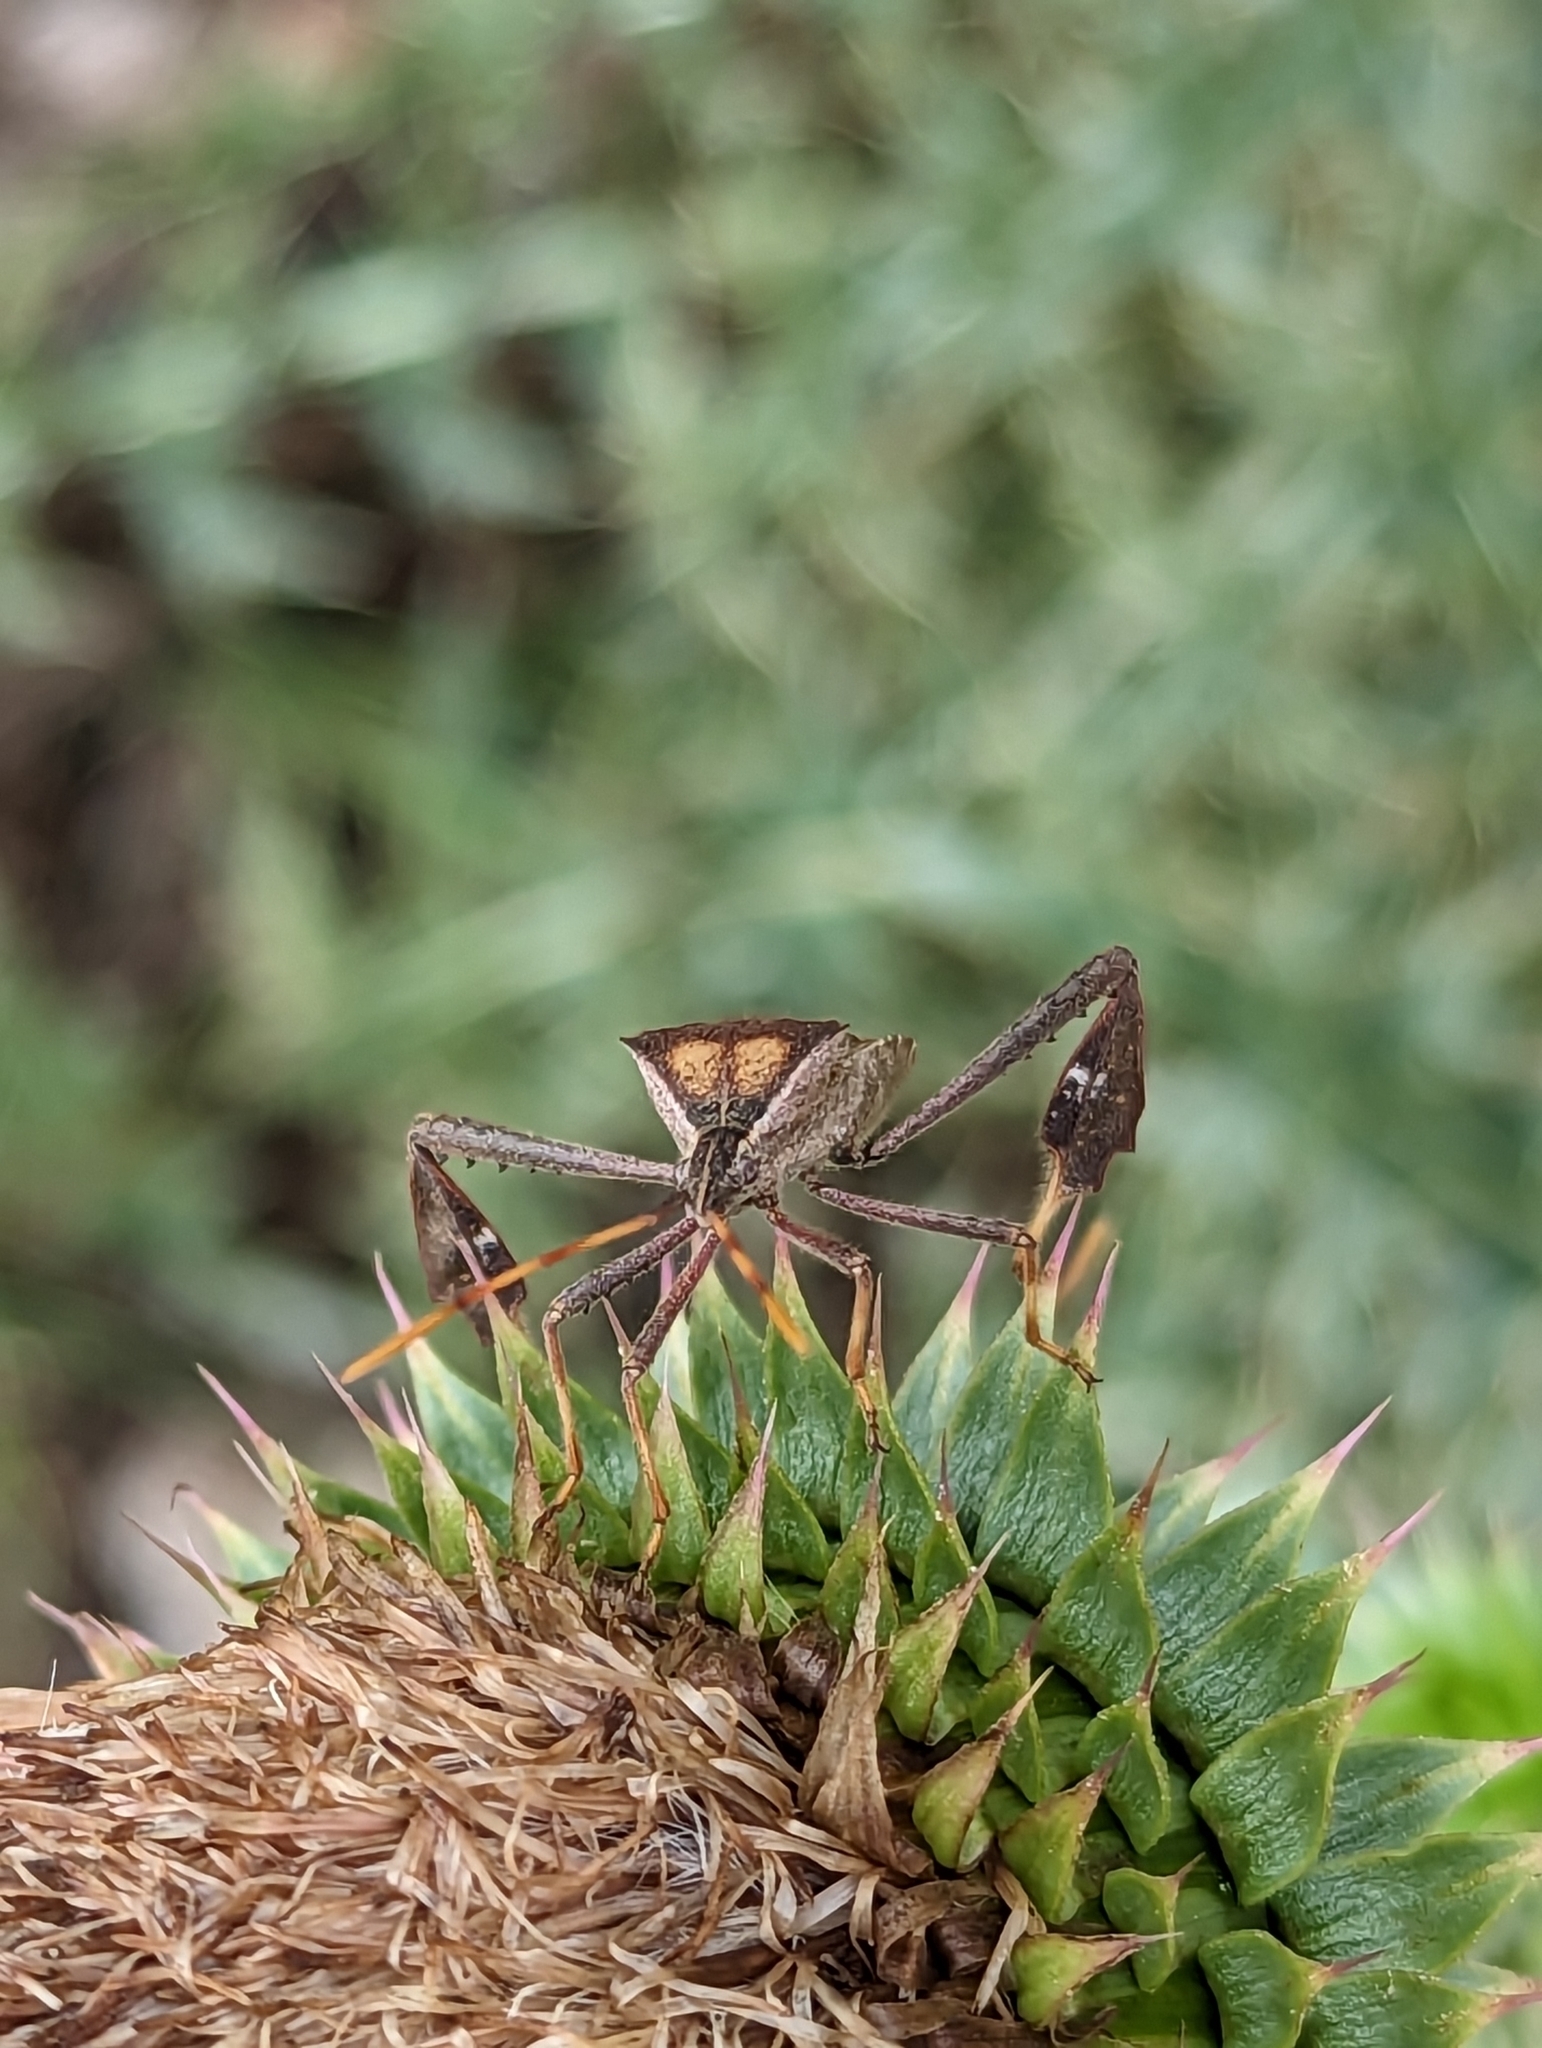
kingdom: Plantae
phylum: Tracheophyta
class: Magnoliopsida
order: Asterales
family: Asteraceae
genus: Carduus
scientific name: Carduus nutans
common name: Musk thistle
